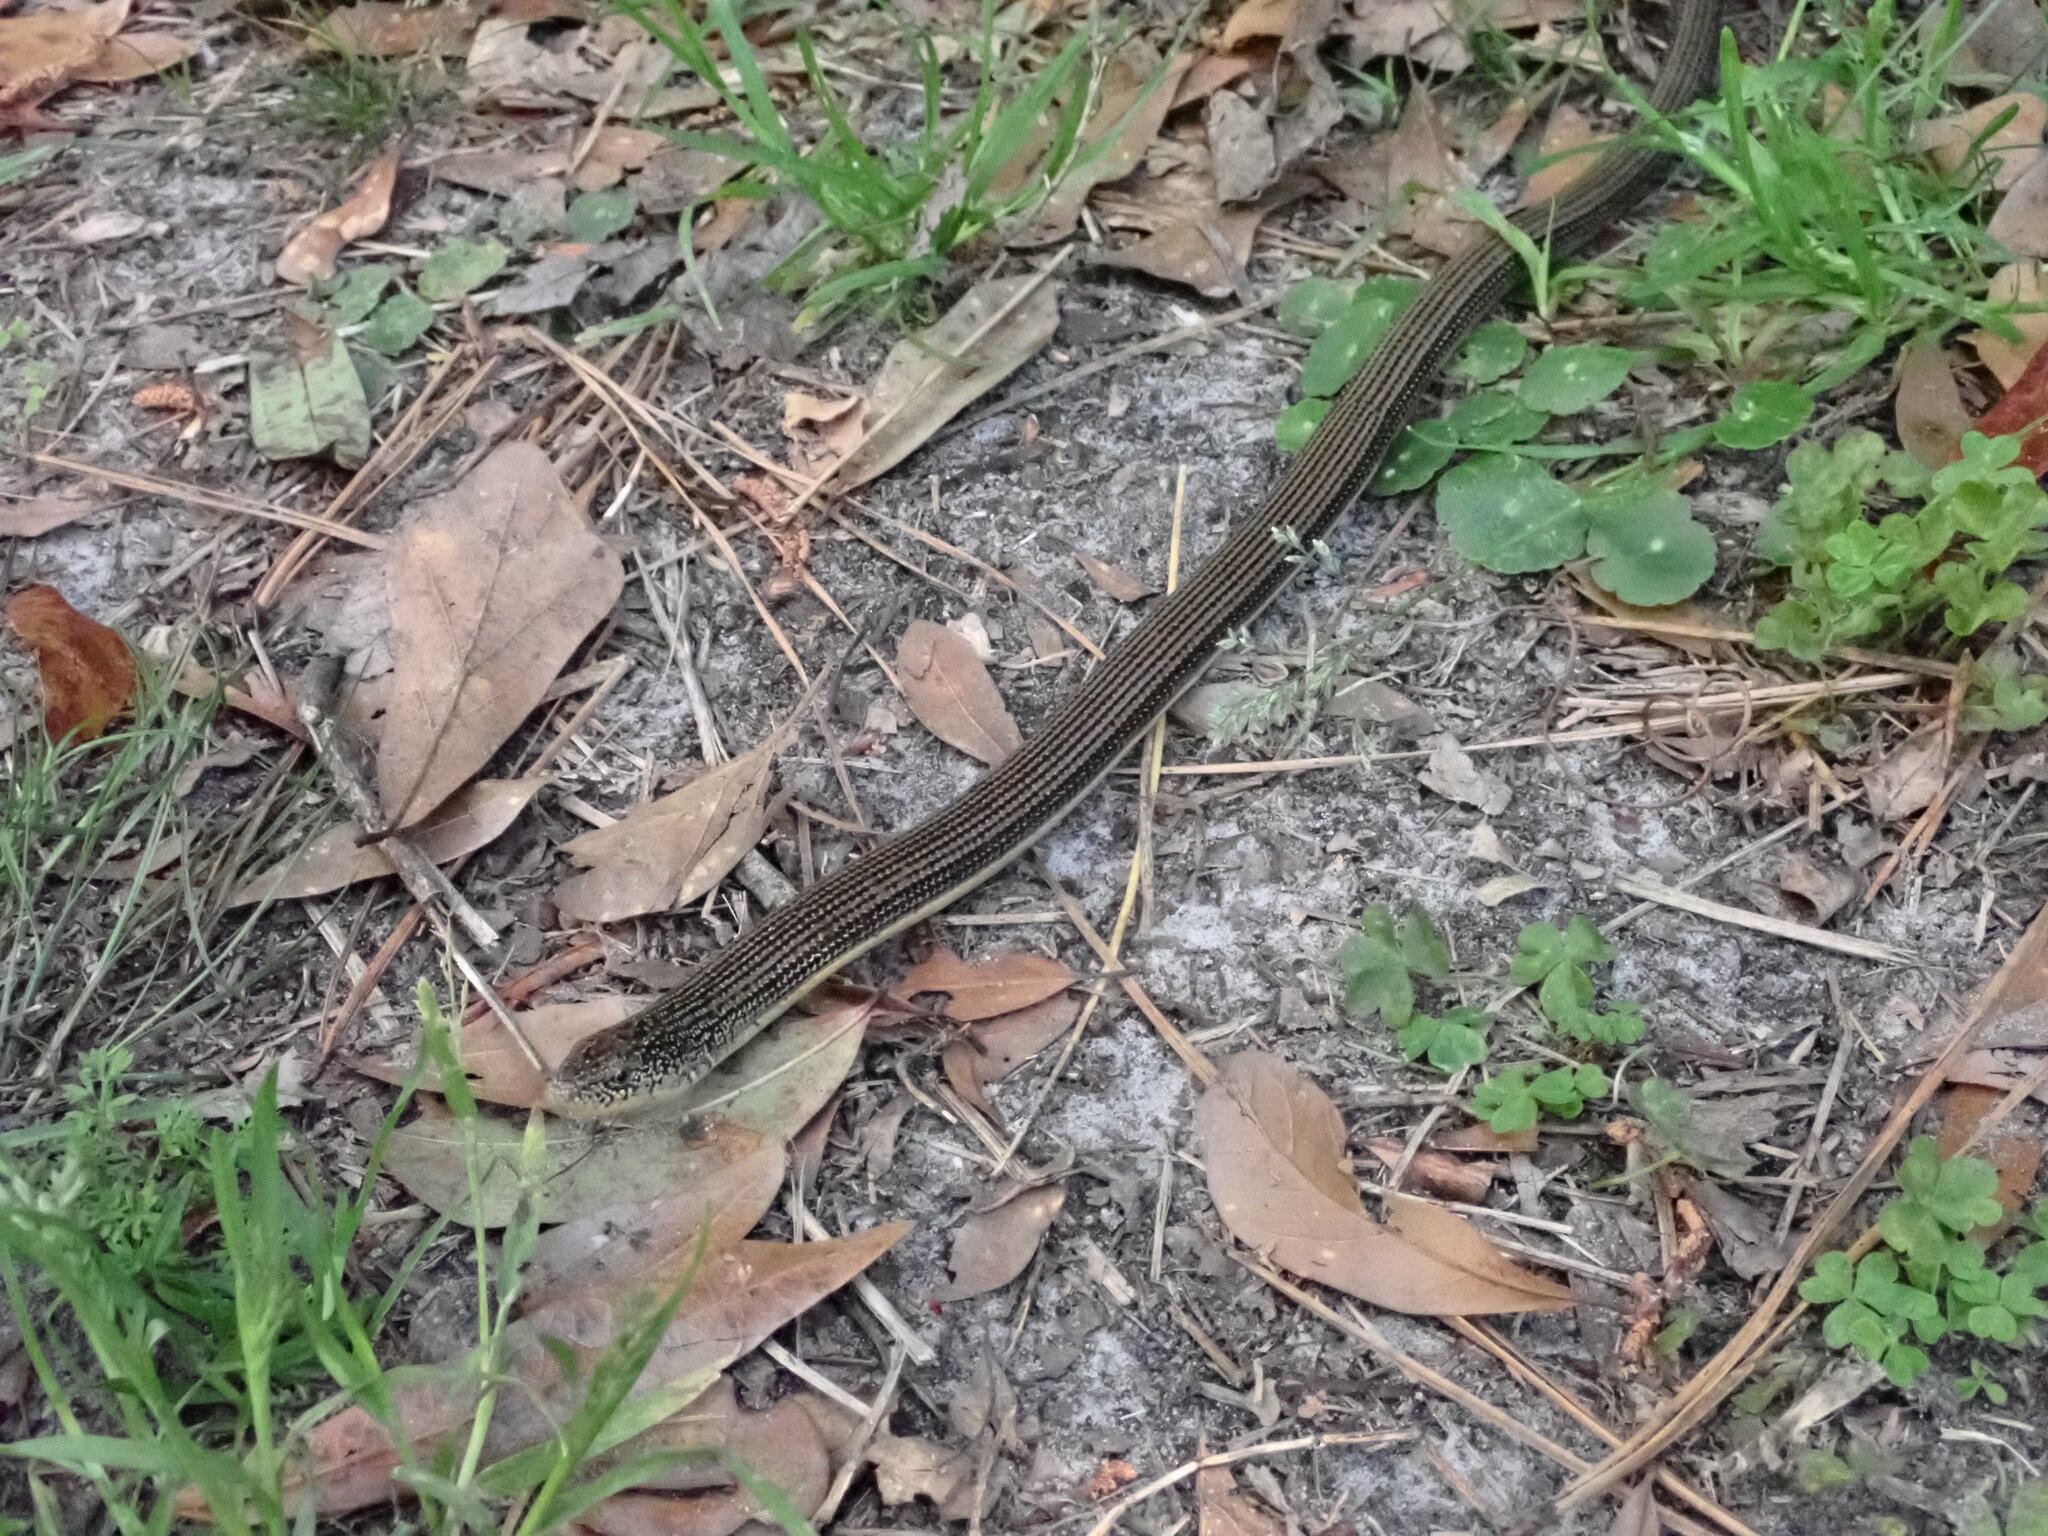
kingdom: Animalia
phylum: Chordata
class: Squamata
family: Anguidae
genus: Ophisaurus
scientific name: Ophisaurus ventralis
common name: Eastern glass lizard
